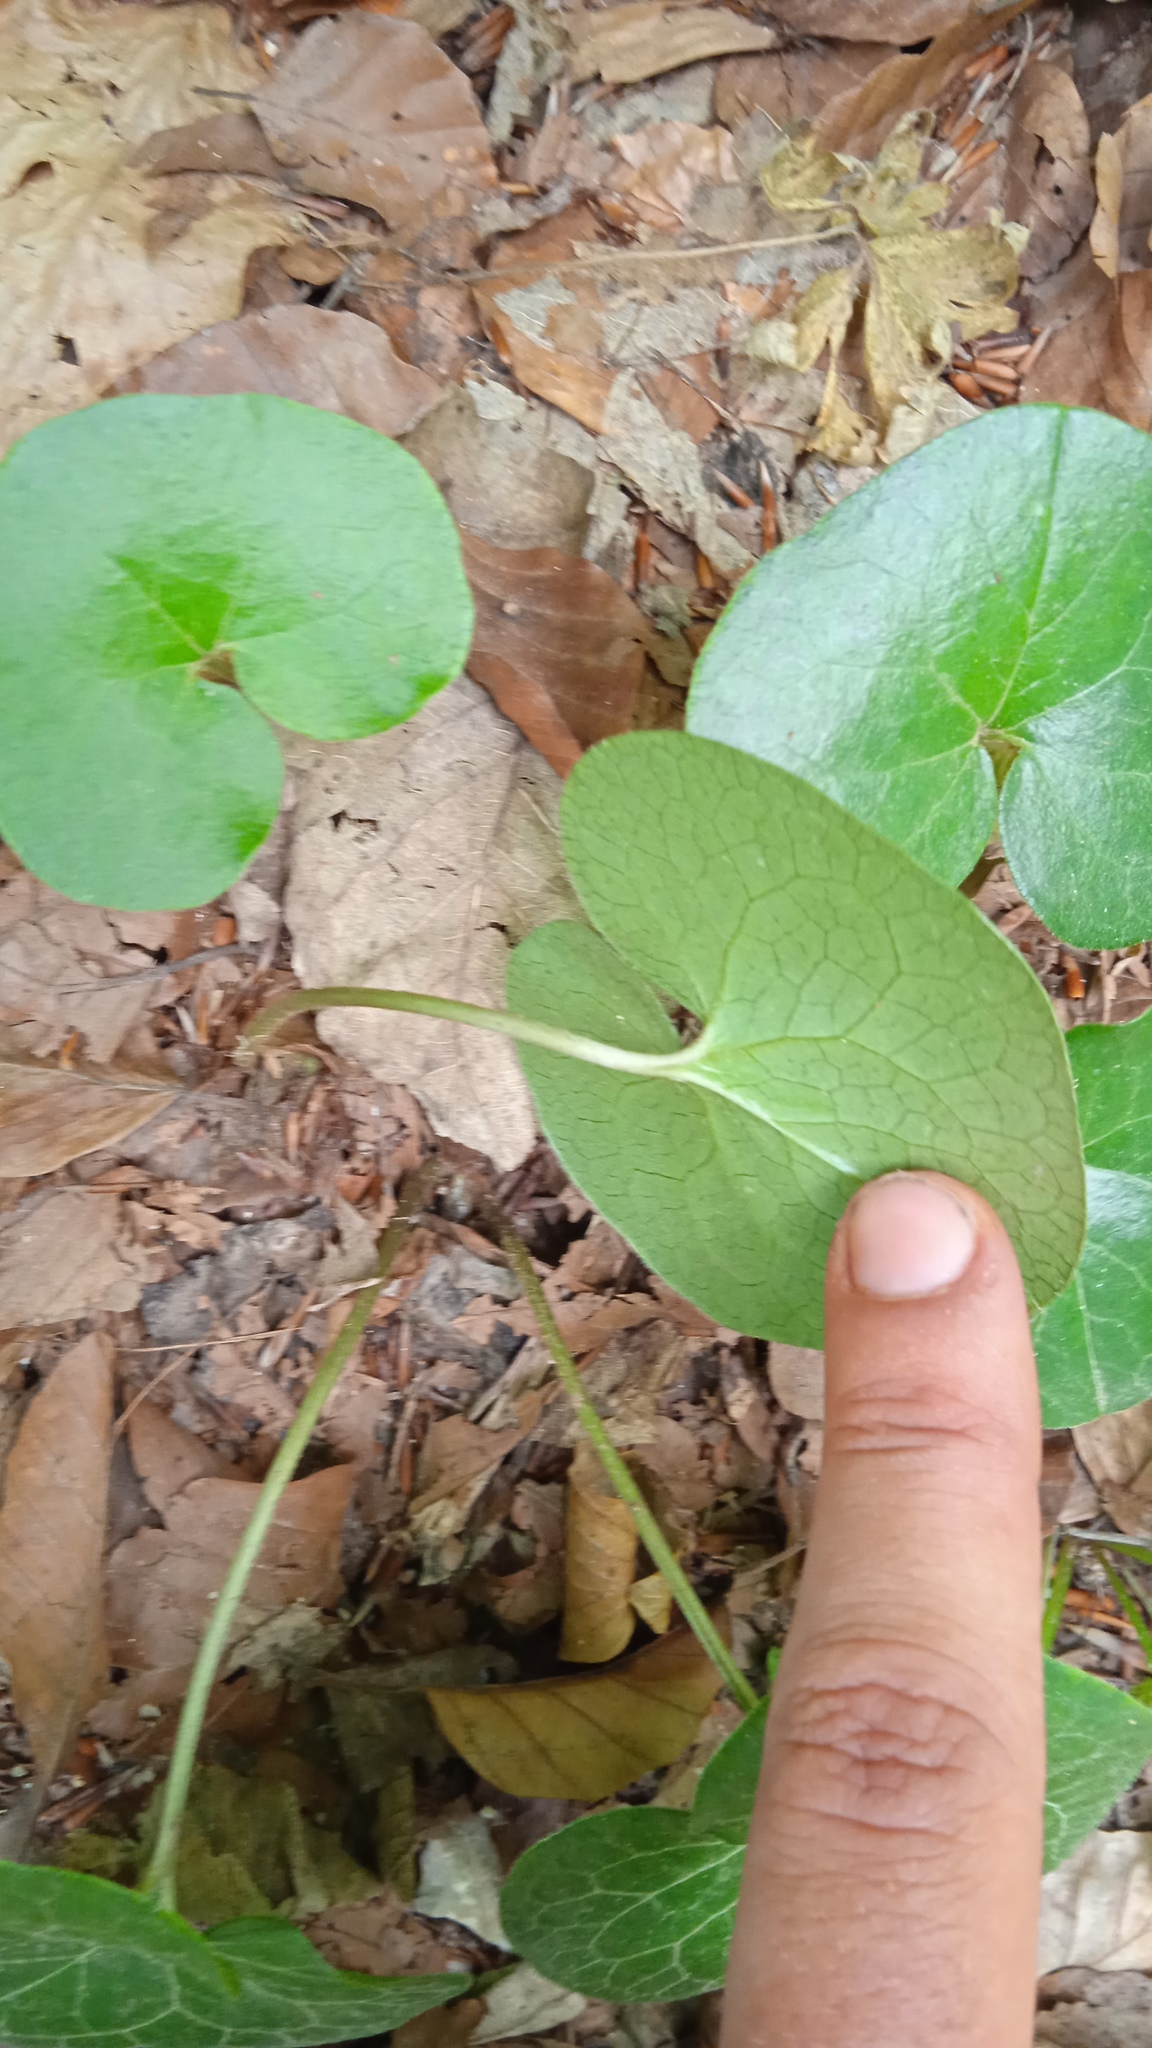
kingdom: Plantae
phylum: Tracheophyta
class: Magnoliopsida
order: Piperales
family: Aristolochiaceae
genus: Asarum
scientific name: Asarum europaeum
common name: Asarabacca
